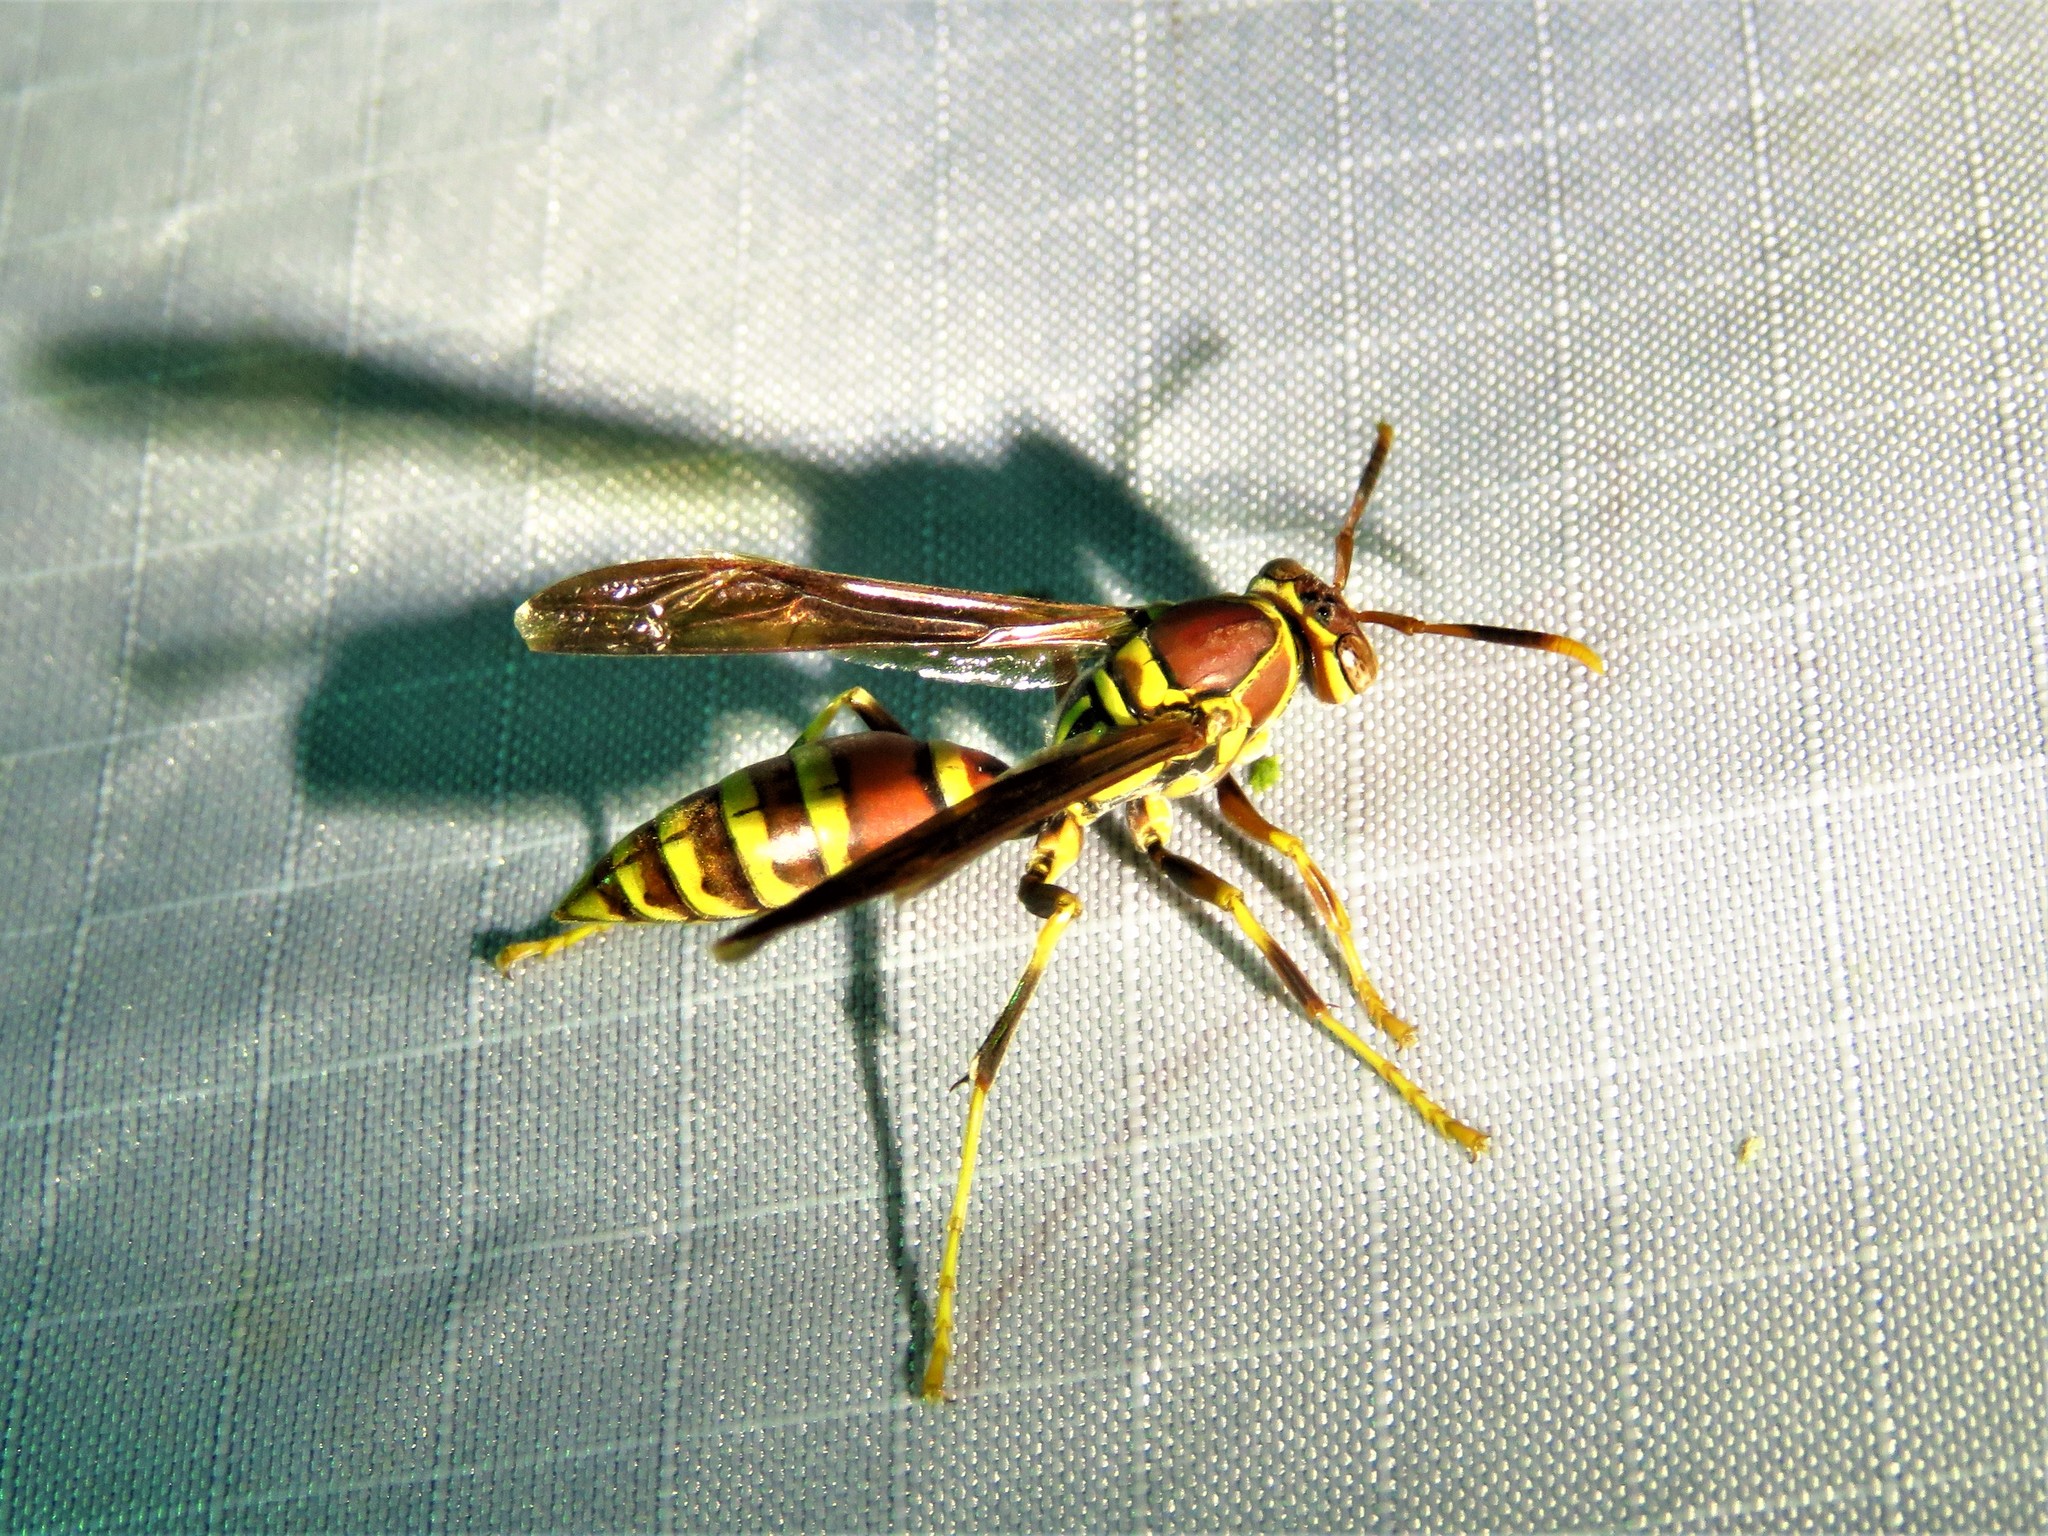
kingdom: Animalia
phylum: Arthropoda
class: Insecta
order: Hymenoptera
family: Eumenidae
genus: Polistes
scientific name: Polistes exclamans
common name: Paper wasp
